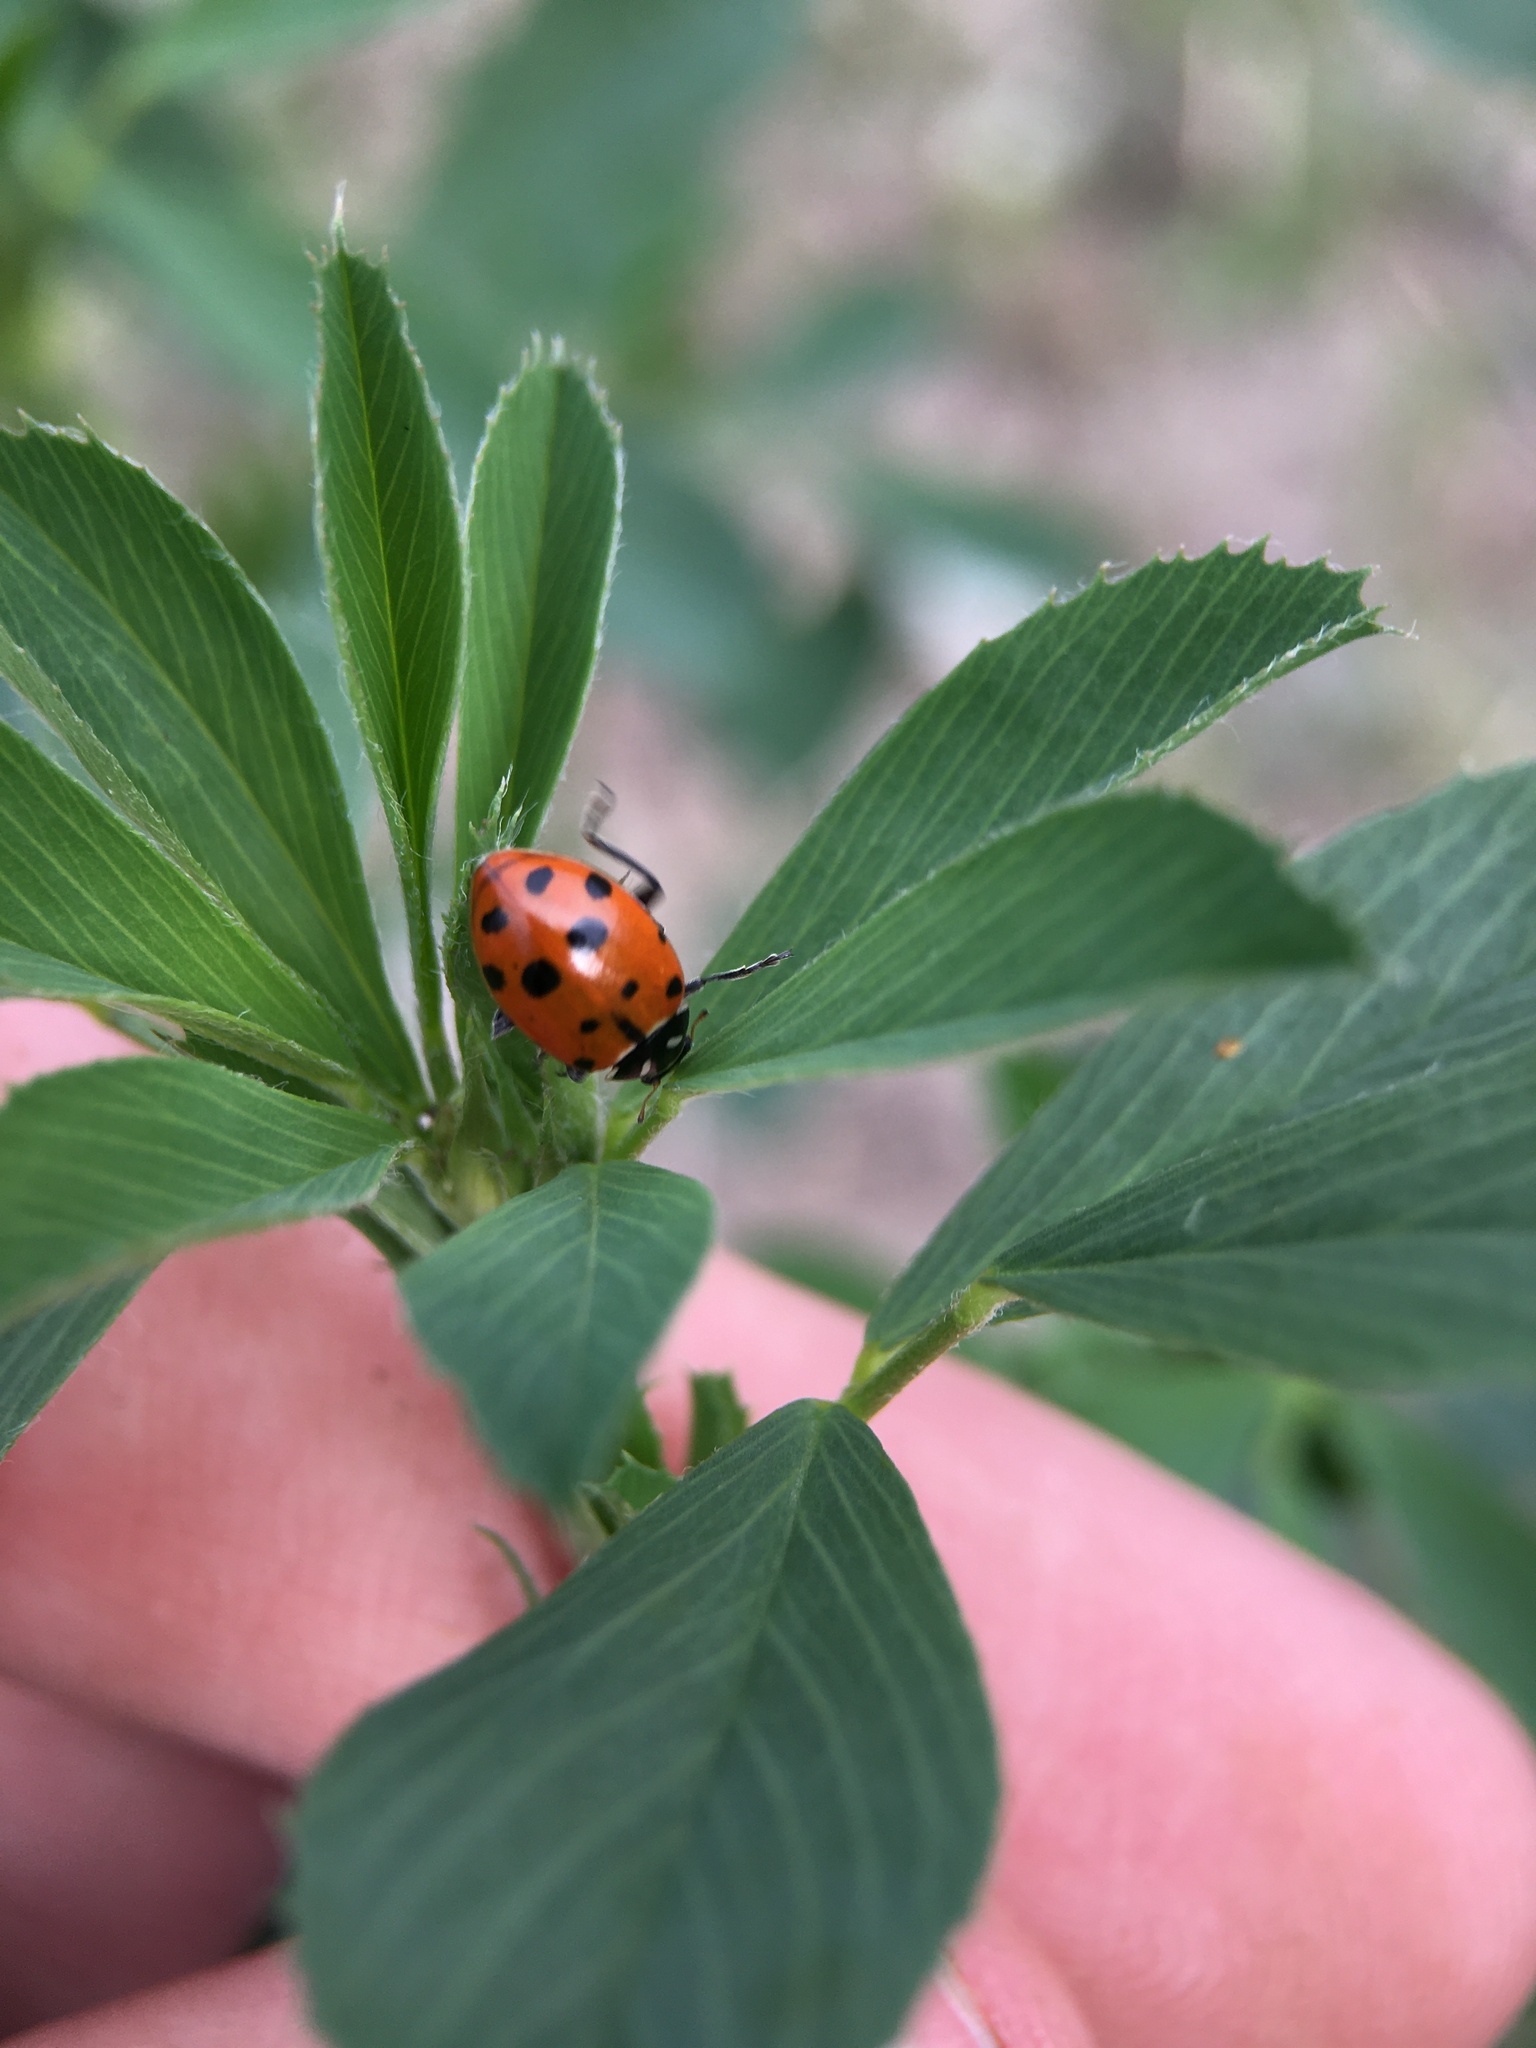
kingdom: Animalia
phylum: Arthropoda
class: Insecta
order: Coleoptera
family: Coccinellidae
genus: Hippodamia
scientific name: Hippodamia convergens
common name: Convergent lady beetle
